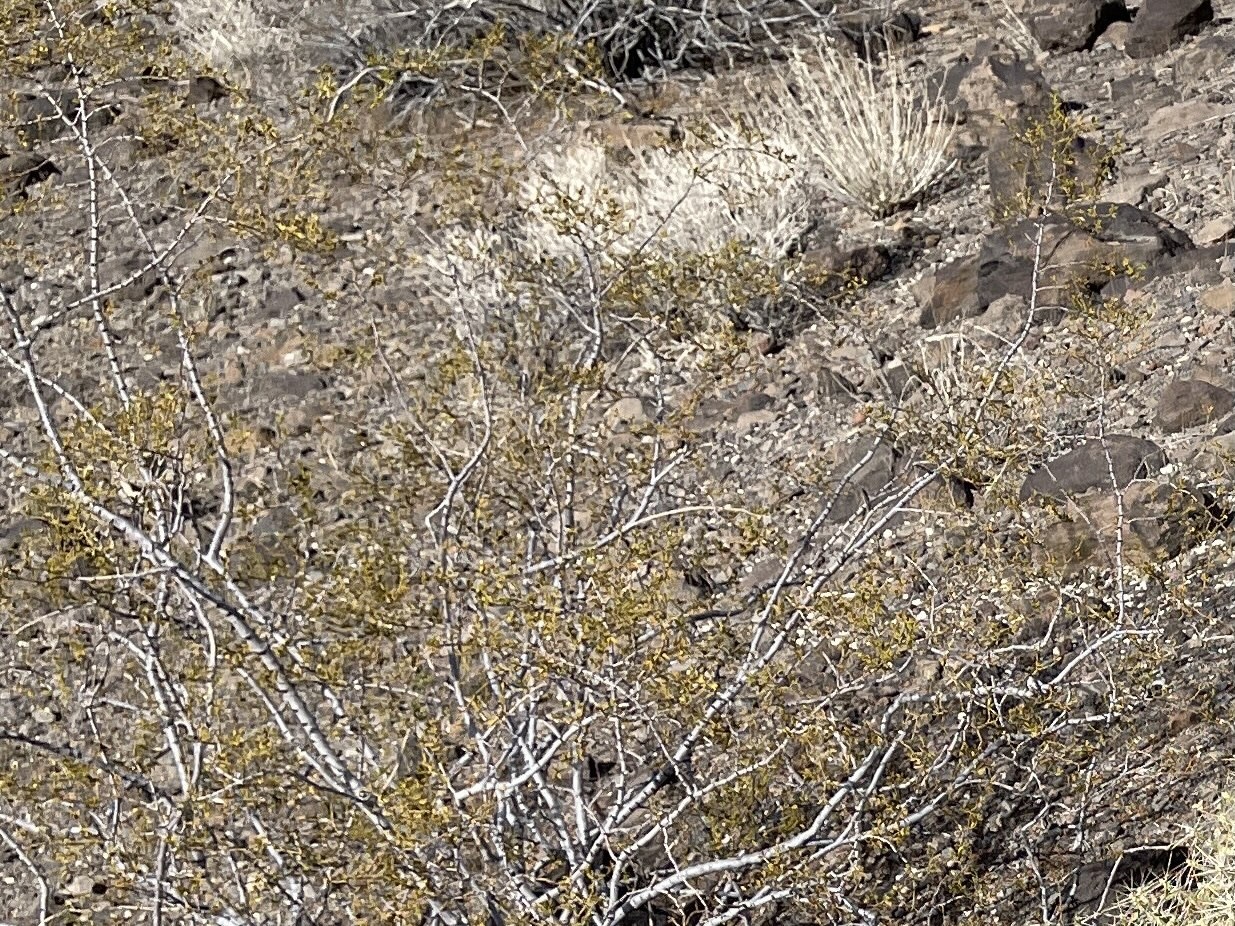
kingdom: Plantae
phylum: Tracheophyta
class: Magnoliopsida
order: Zygophyllales
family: Zygophyllaceae
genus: Larrea
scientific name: Larrea tridentata
